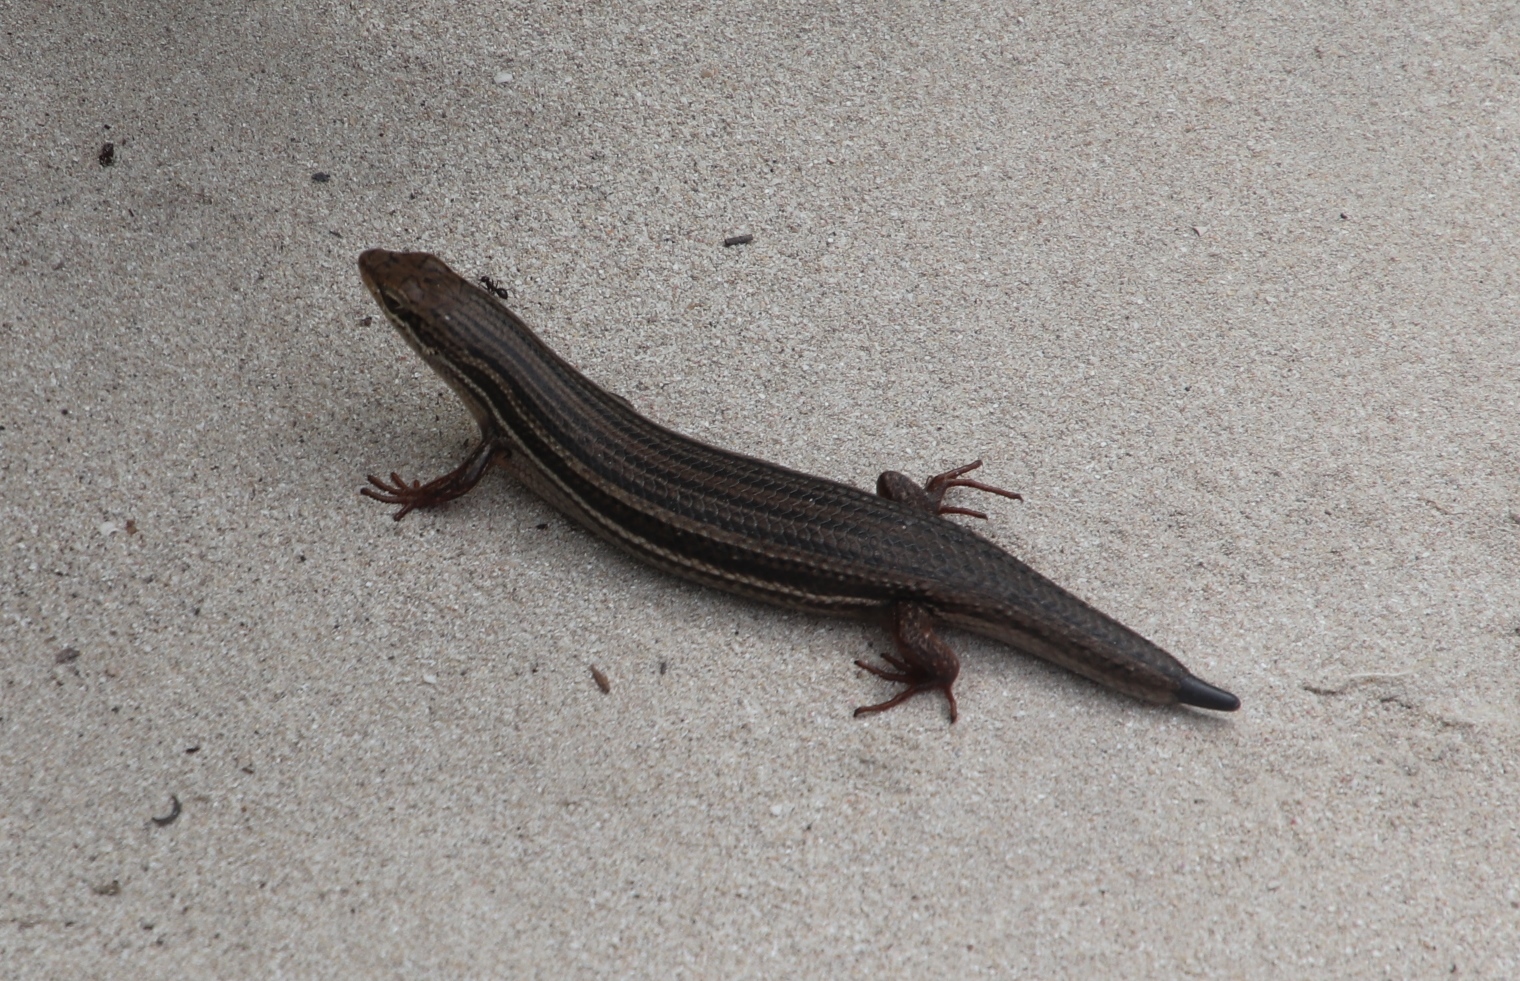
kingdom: Animalia
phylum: Chordata
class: Squamata
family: Scincidae
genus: Trachylepis
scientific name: Trachylepis homalocephala
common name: Red-sided skink
